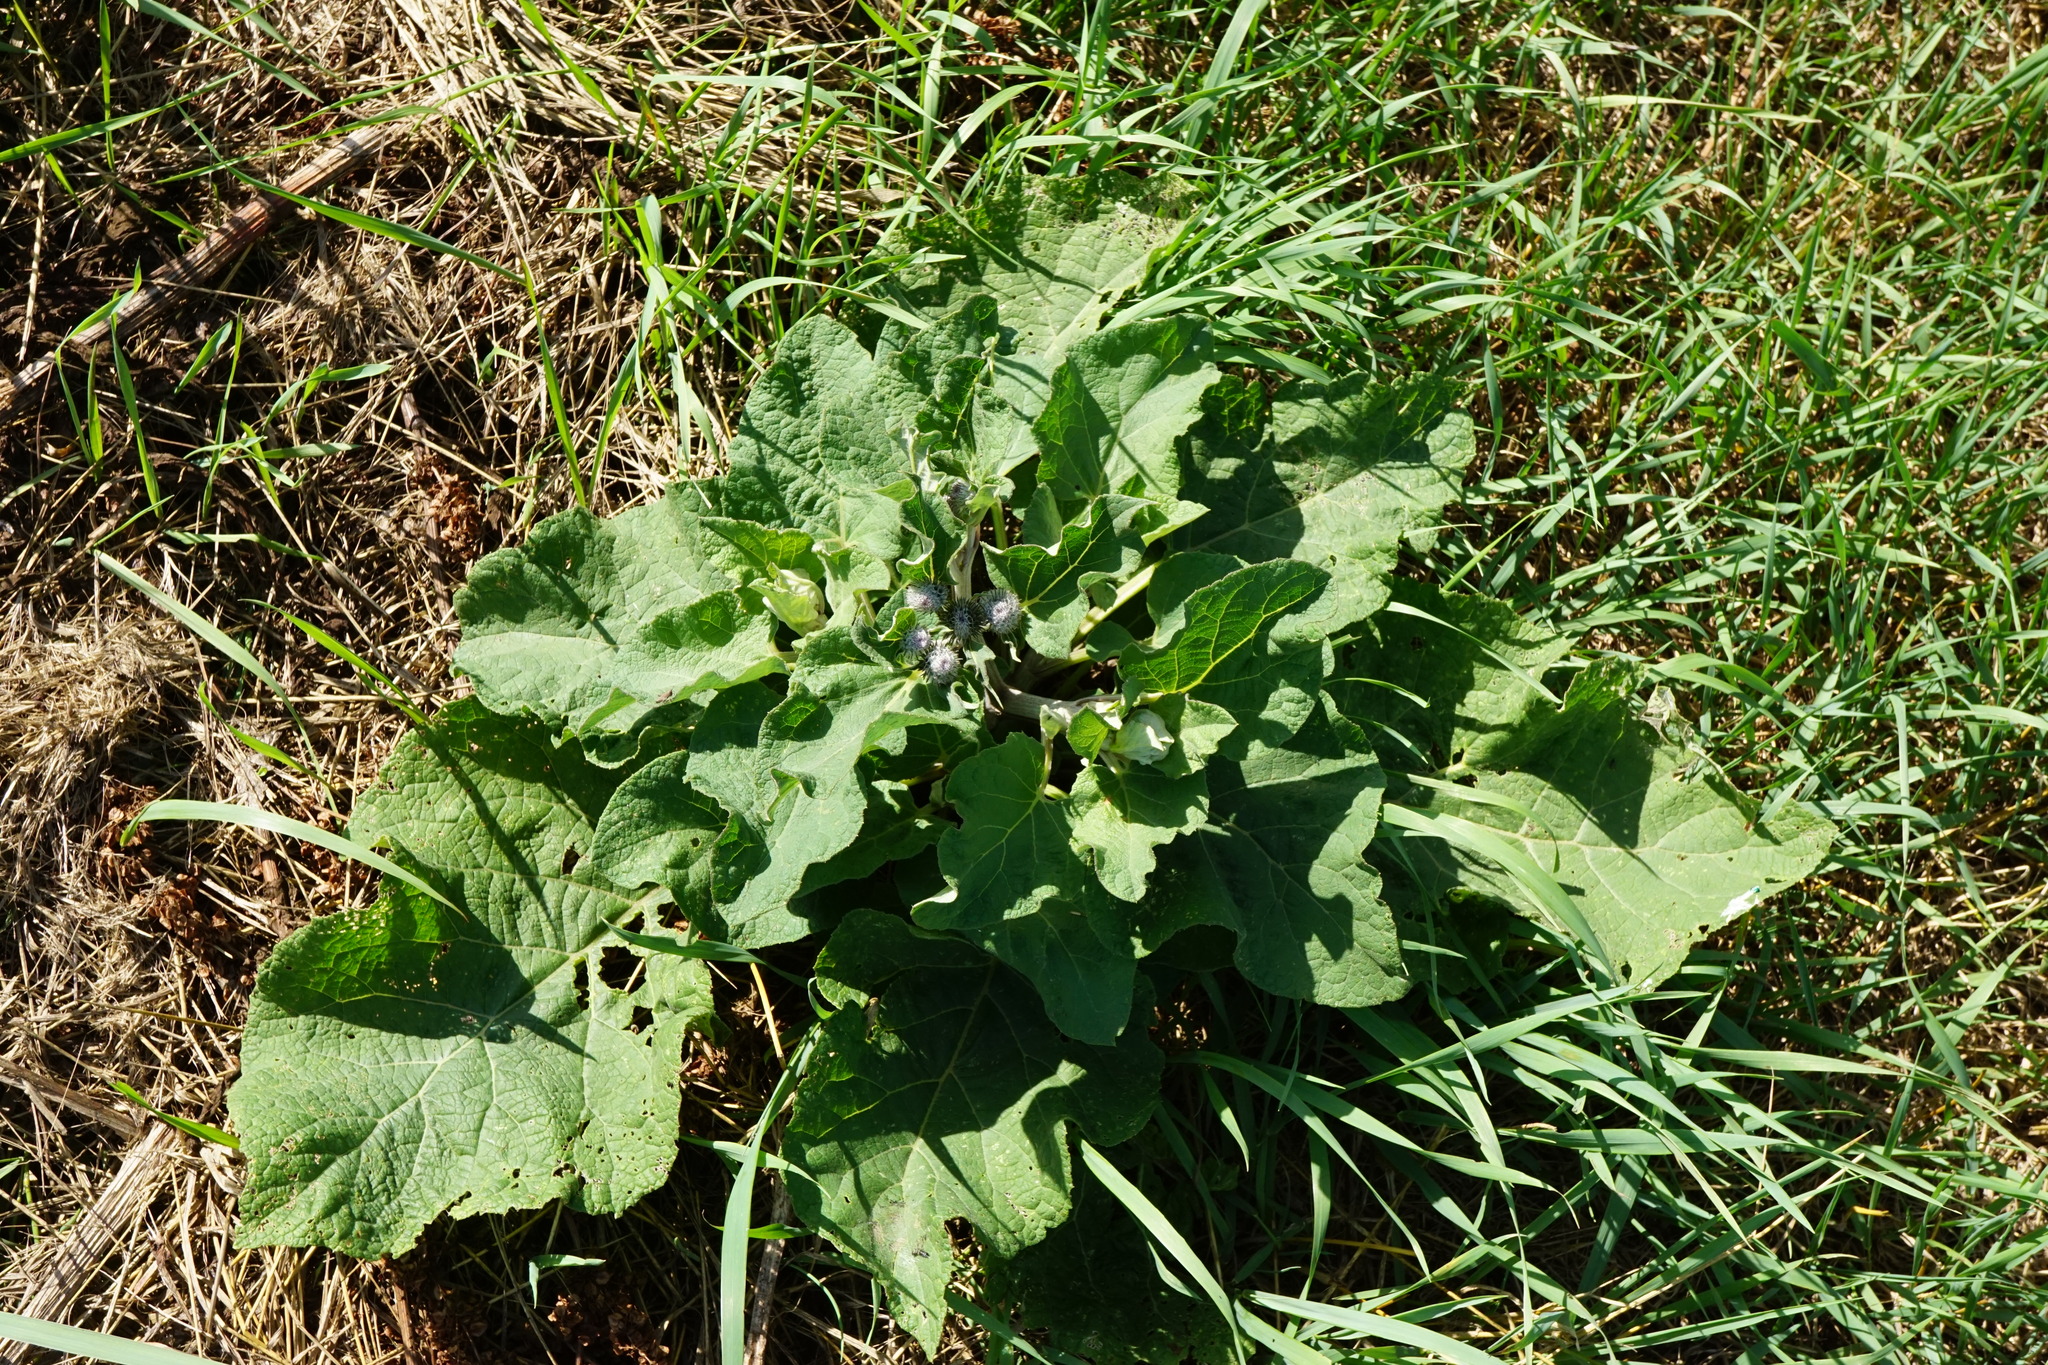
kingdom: Plantae
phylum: Tracheophyta
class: Magnoliopsida
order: Asterales
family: Asteraceae
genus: Arctium
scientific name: Arctium tomentosum
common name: Woolly burdock
